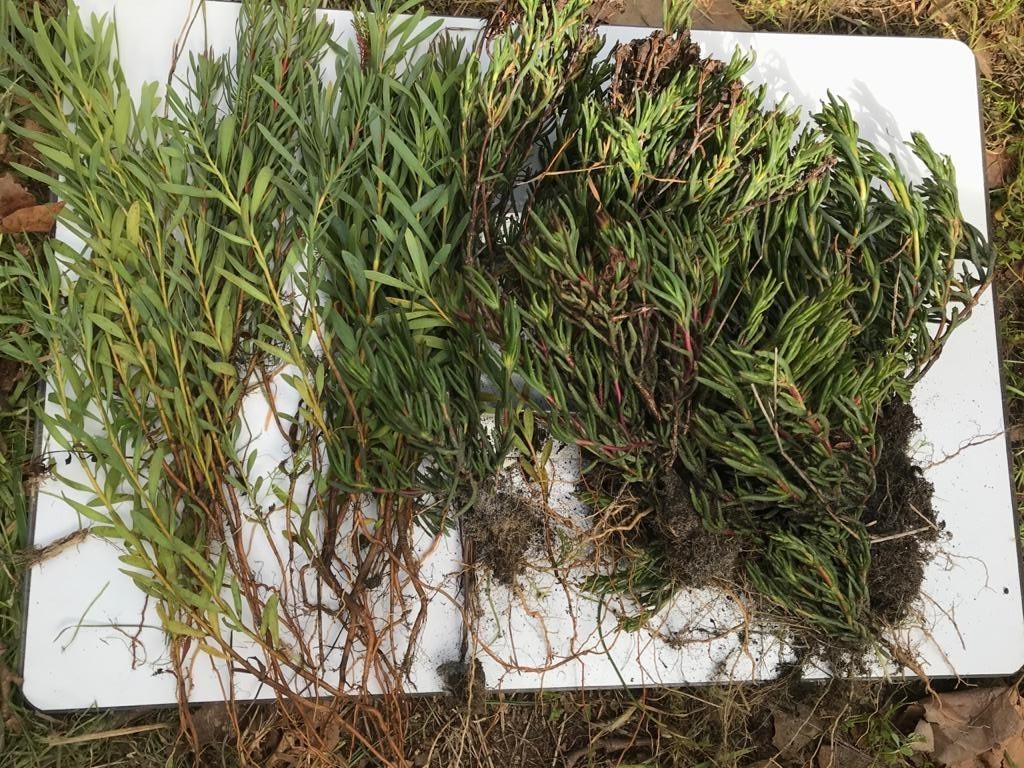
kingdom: Plantae
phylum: Tracheophyta
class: Magnoliopsida
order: Caryophyllales
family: Aizoaceae
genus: Lampranthus
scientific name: Lampranthus bicolor
